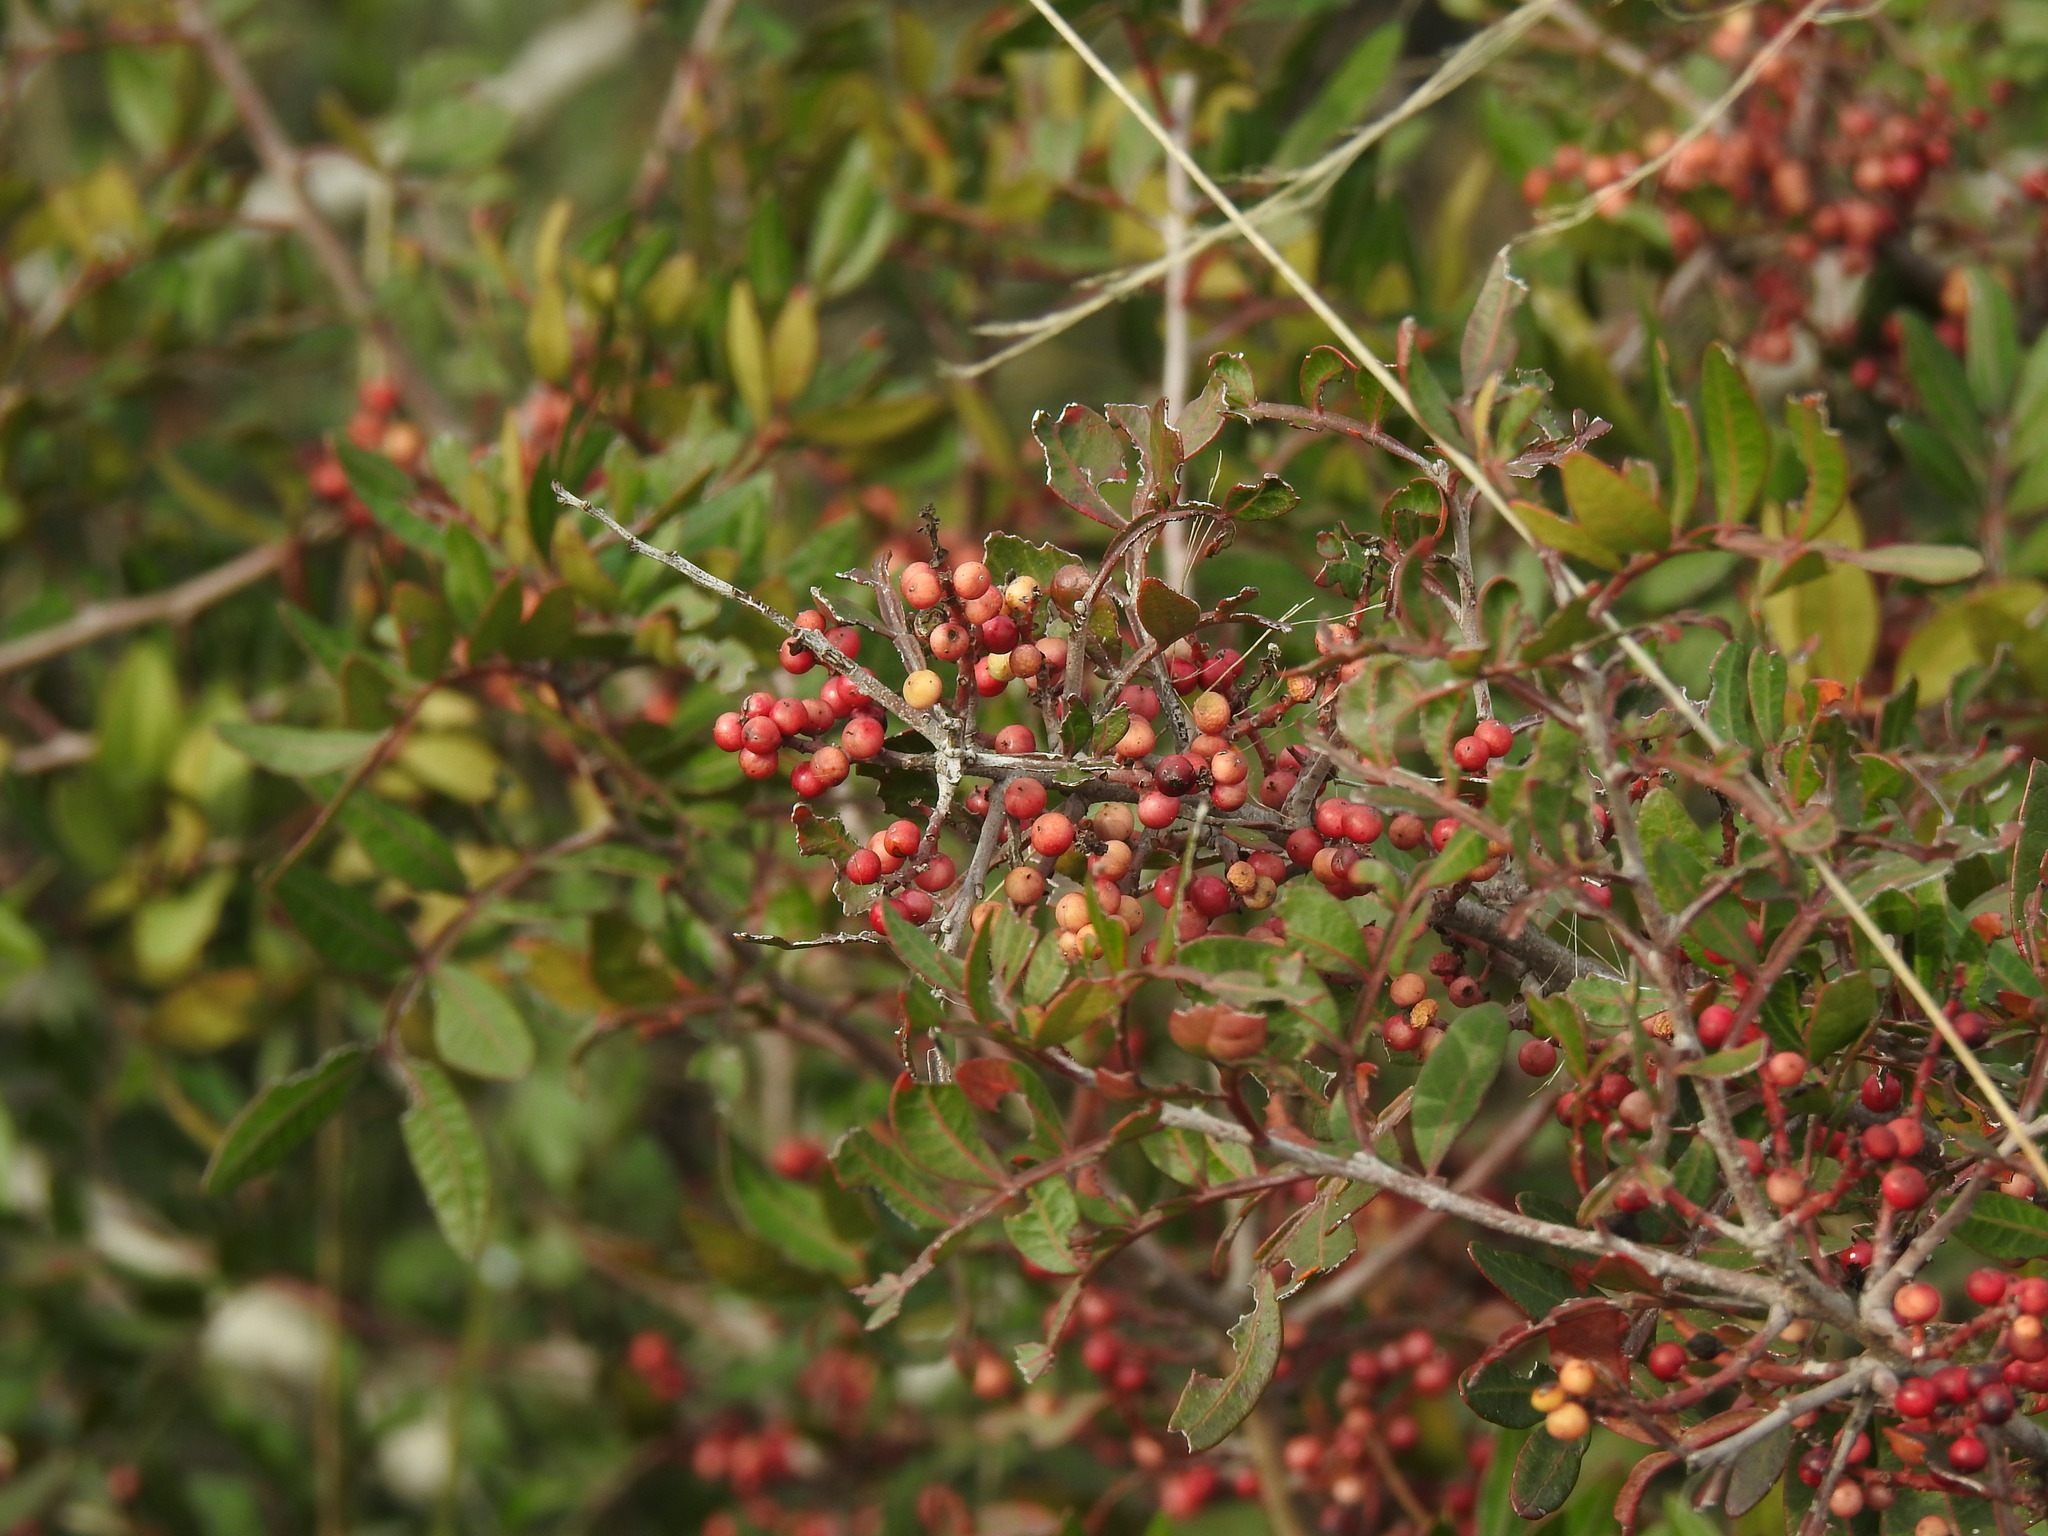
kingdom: Plantae
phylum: Tracheophyta
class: Magnoliopsida
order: Sapindales
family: Anacardiaceae
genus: Pistacia
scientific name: Pistacia lentiscus
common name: Lentisk
